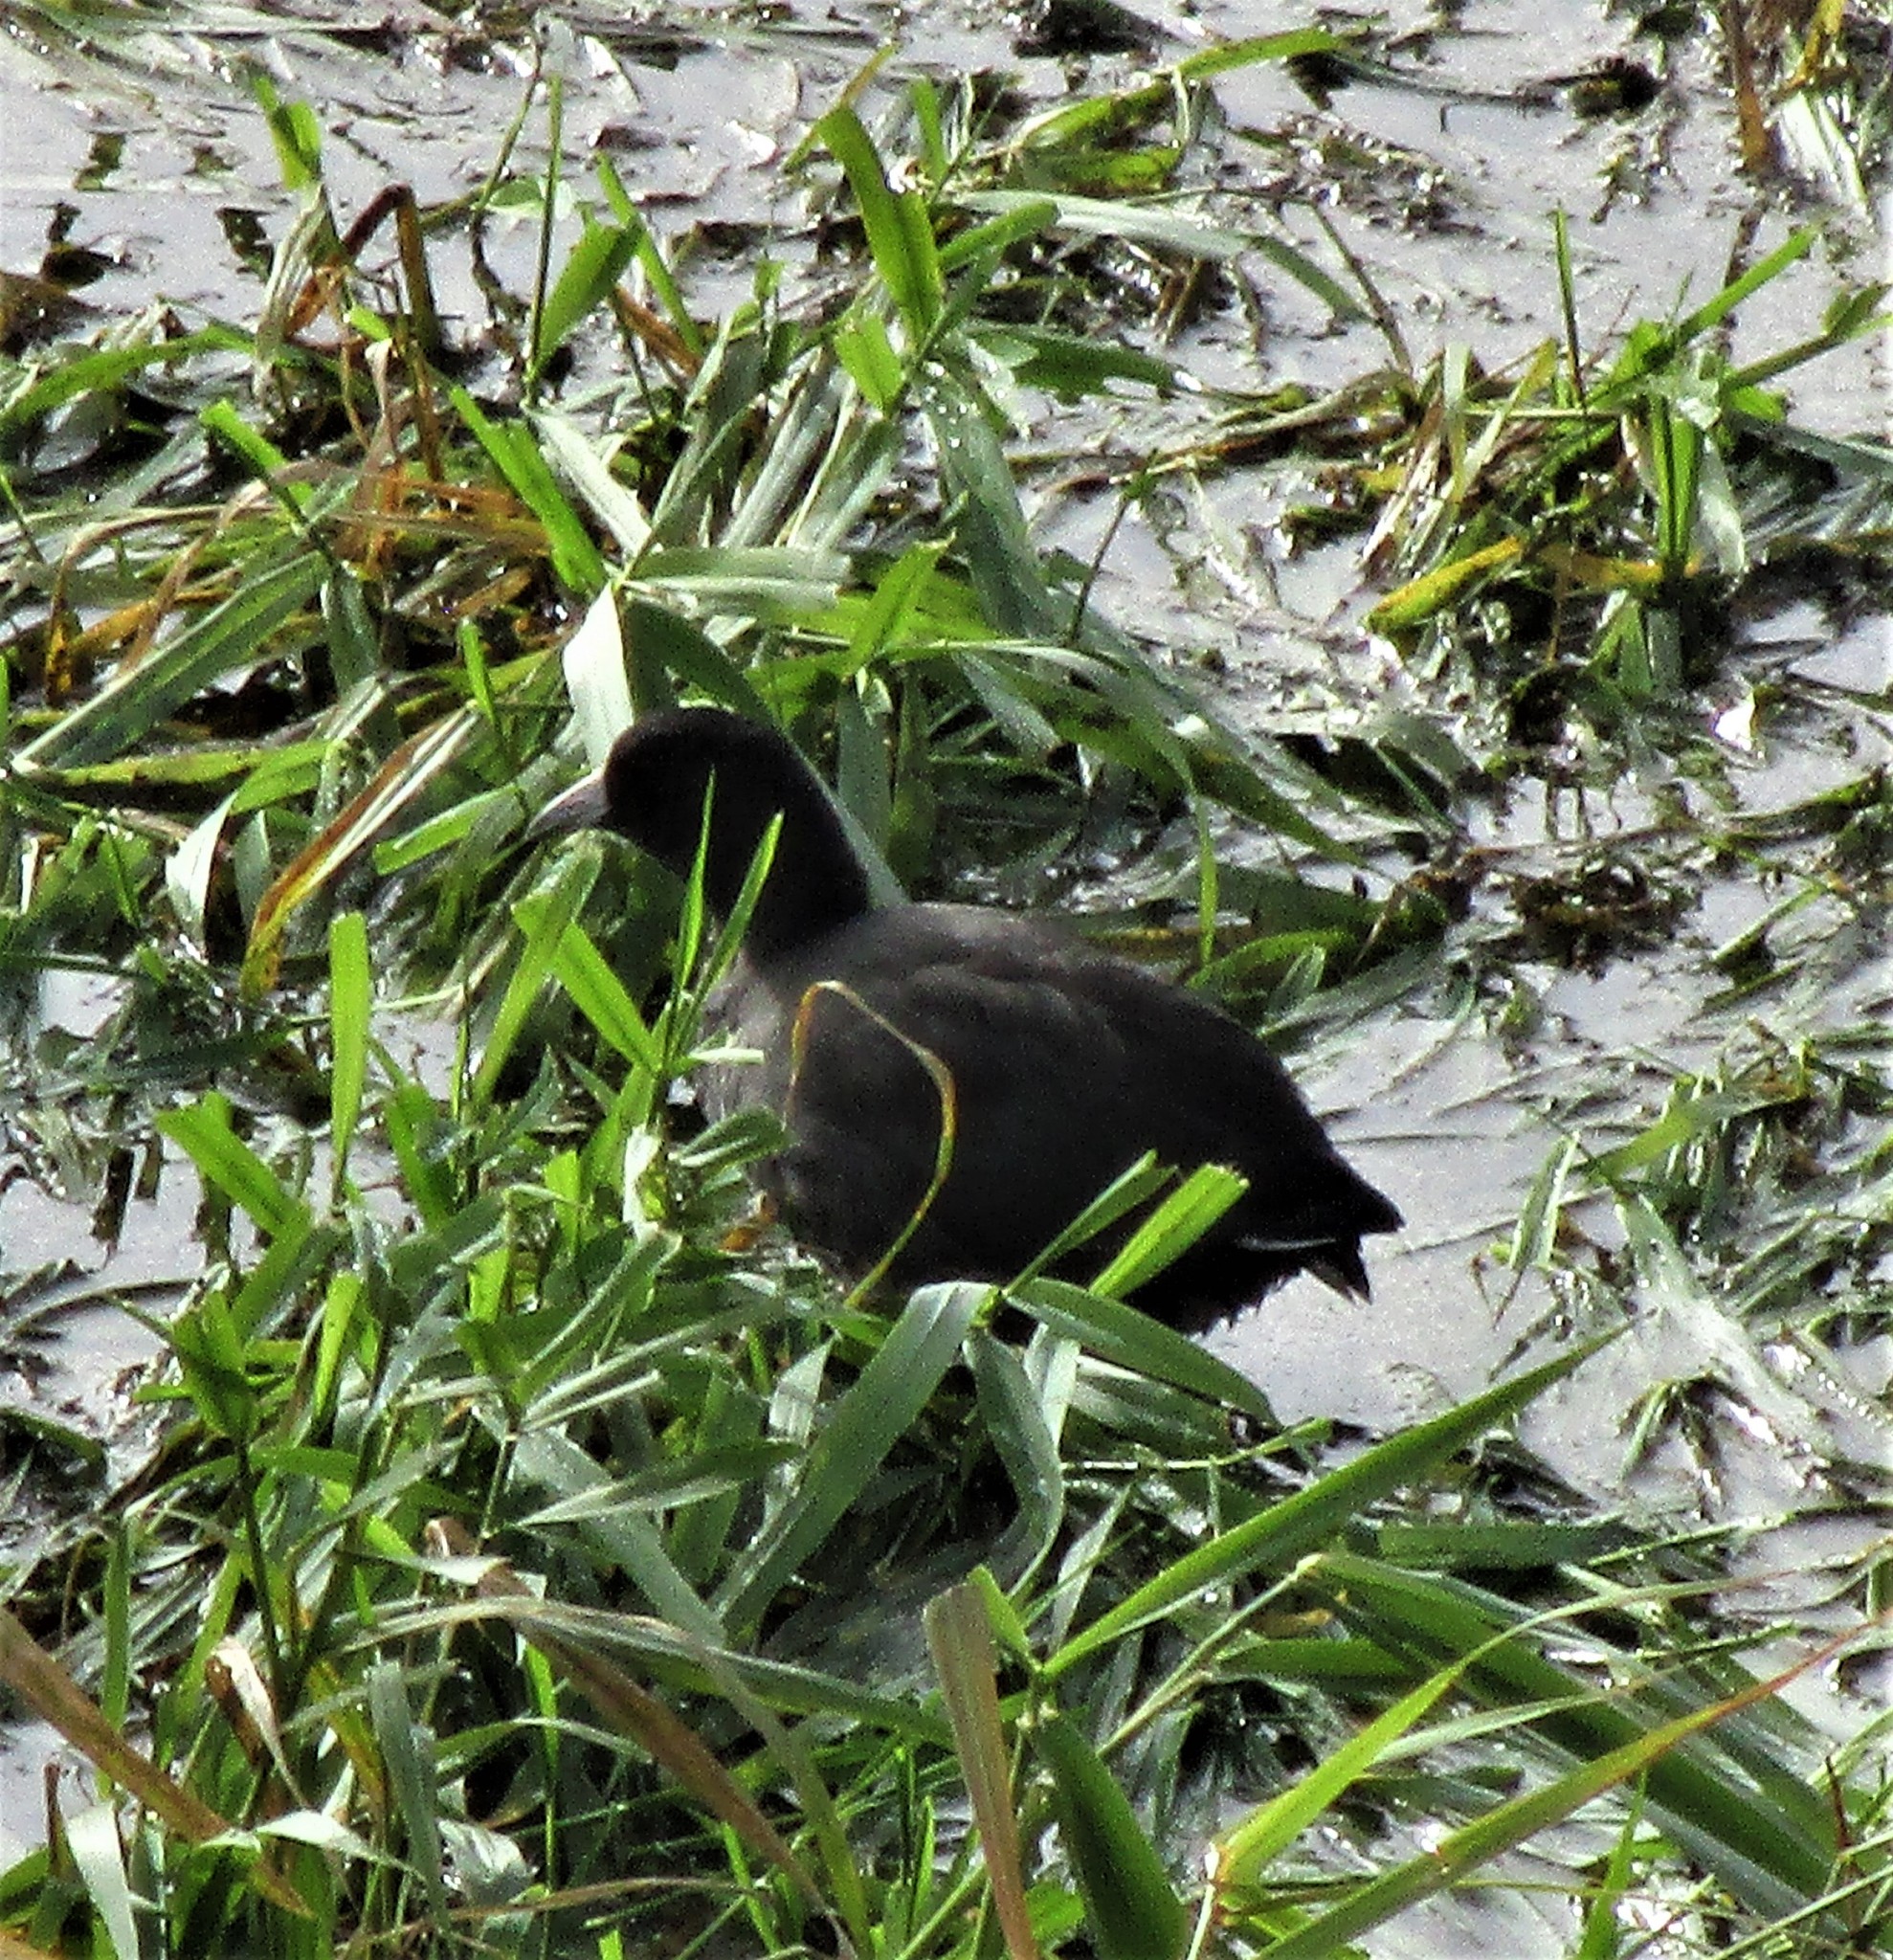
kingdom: Animalia
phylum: Chordata
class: Aves
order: Gruiformes
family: Rallidae
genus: Fulica
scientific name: Fulica americana
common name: American coot
